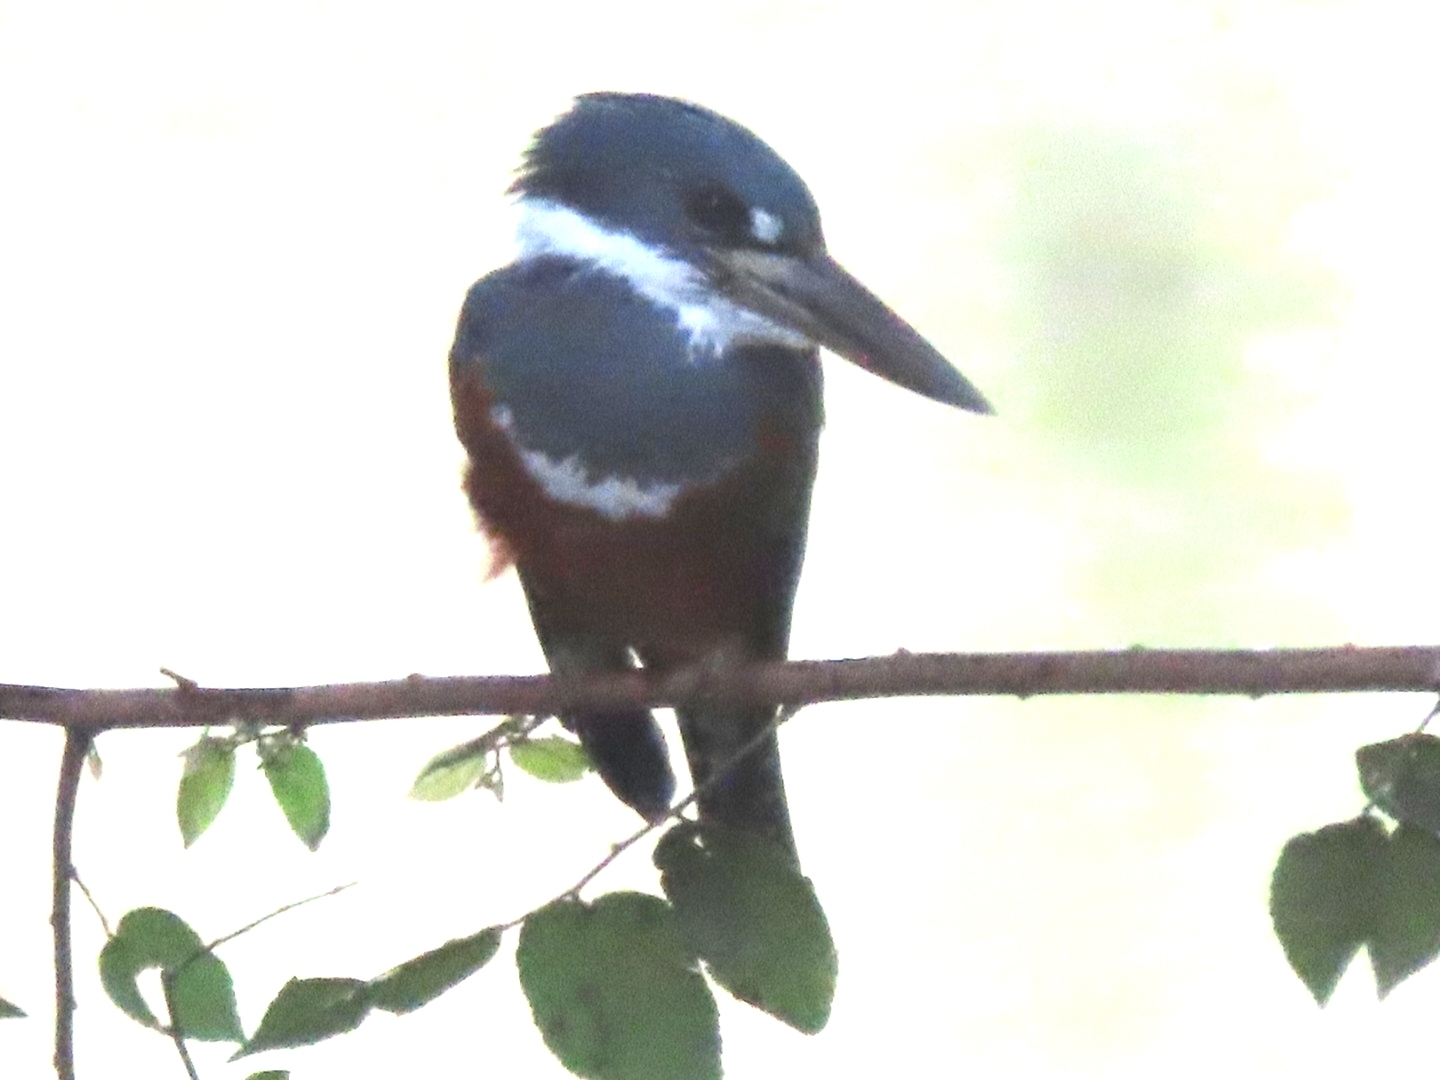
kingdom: Animalia
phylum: Chordata
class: Aves
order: Coraciiformes
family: Alcedinidae
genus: Megaceryle
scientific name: Megaceryle torquata
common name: Ringed kingfisher
